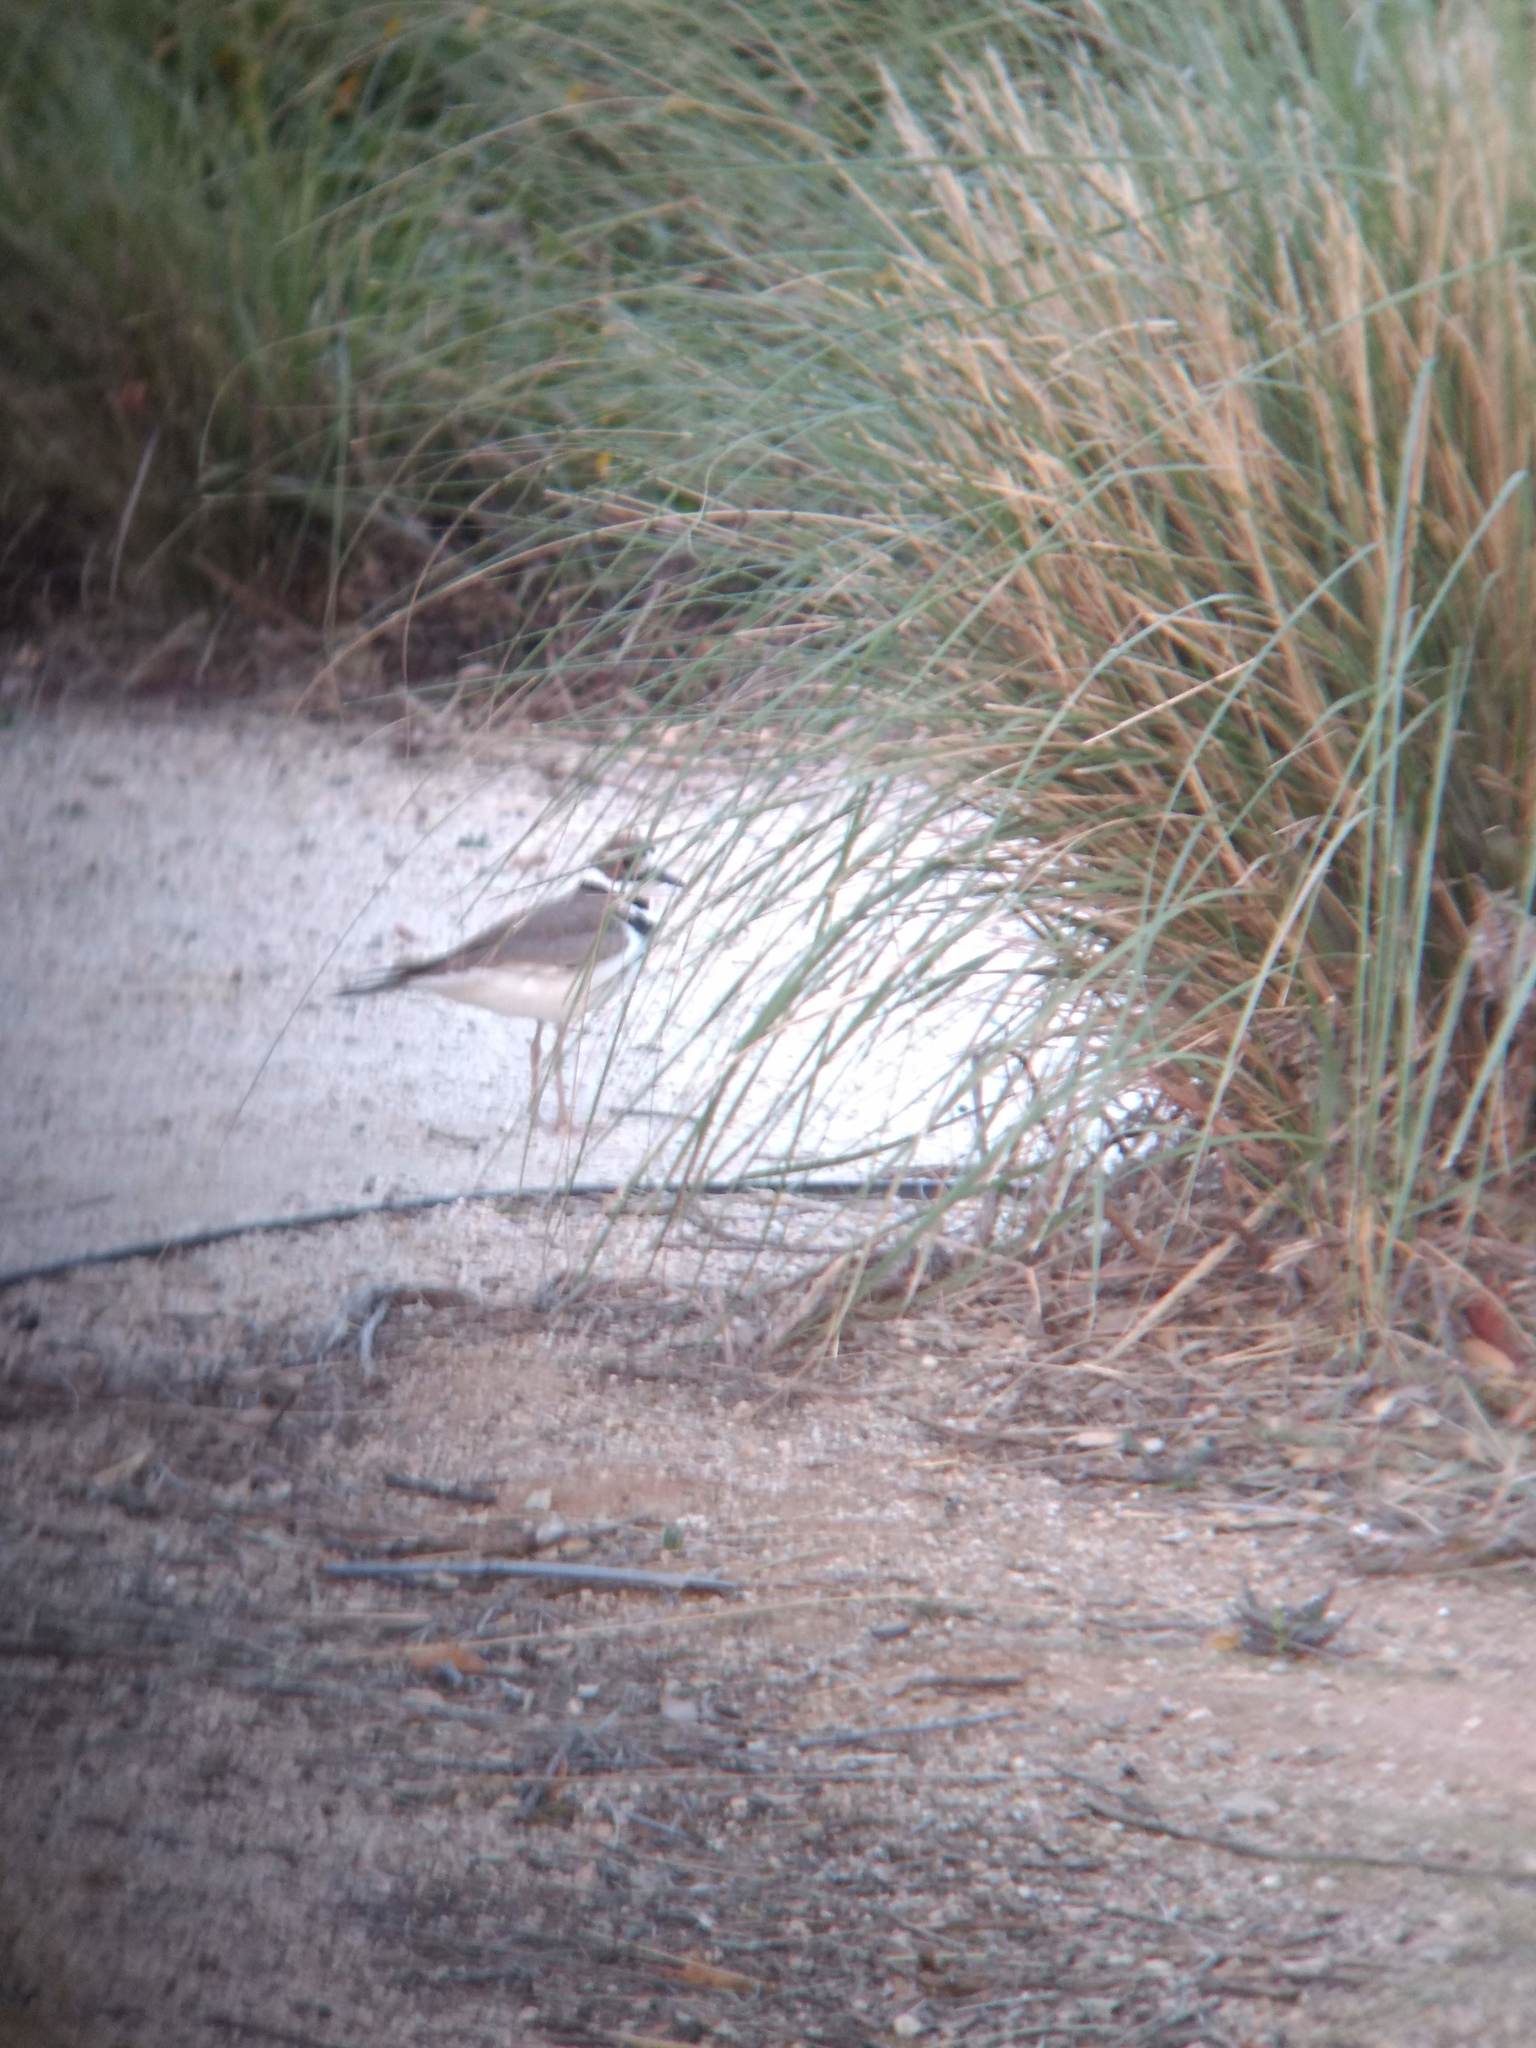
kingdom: Animalia
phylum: Chordata
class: Aves
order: Charadriiformes
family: Charadriidae
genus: Charadrius
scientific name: Charadrius vociferus
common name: Killdeer
